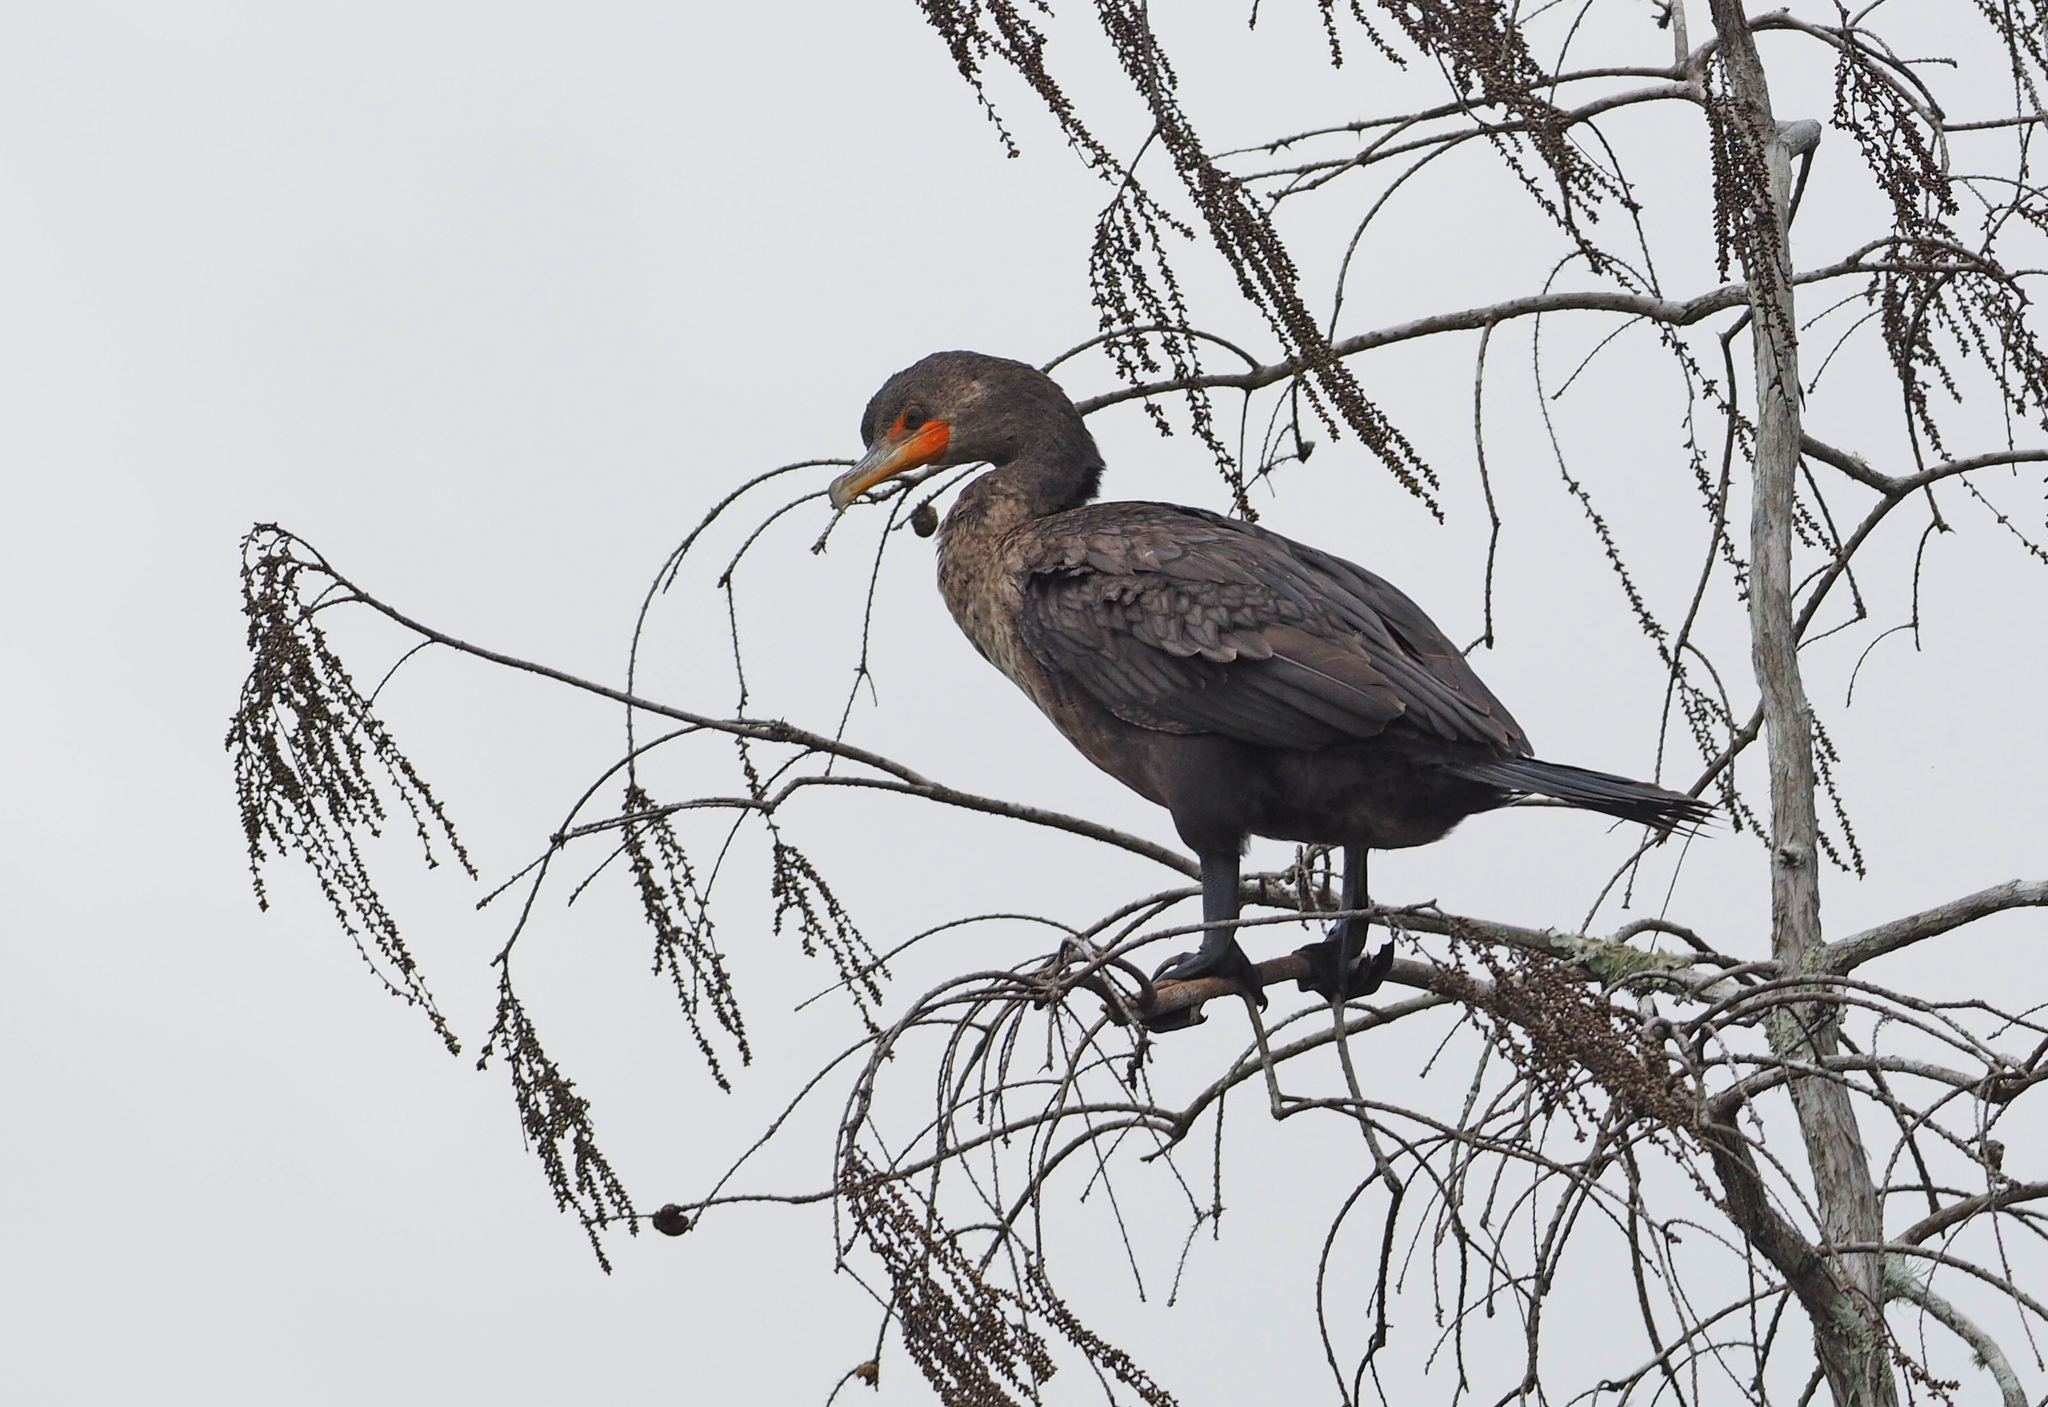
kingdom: Animalia
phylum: Chordata
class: Aves
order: Suliformes
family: Phalacrocoracidae
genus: Phalacrocorax
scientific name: Phalacrocorax auritus
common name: Double-crested cormorant
